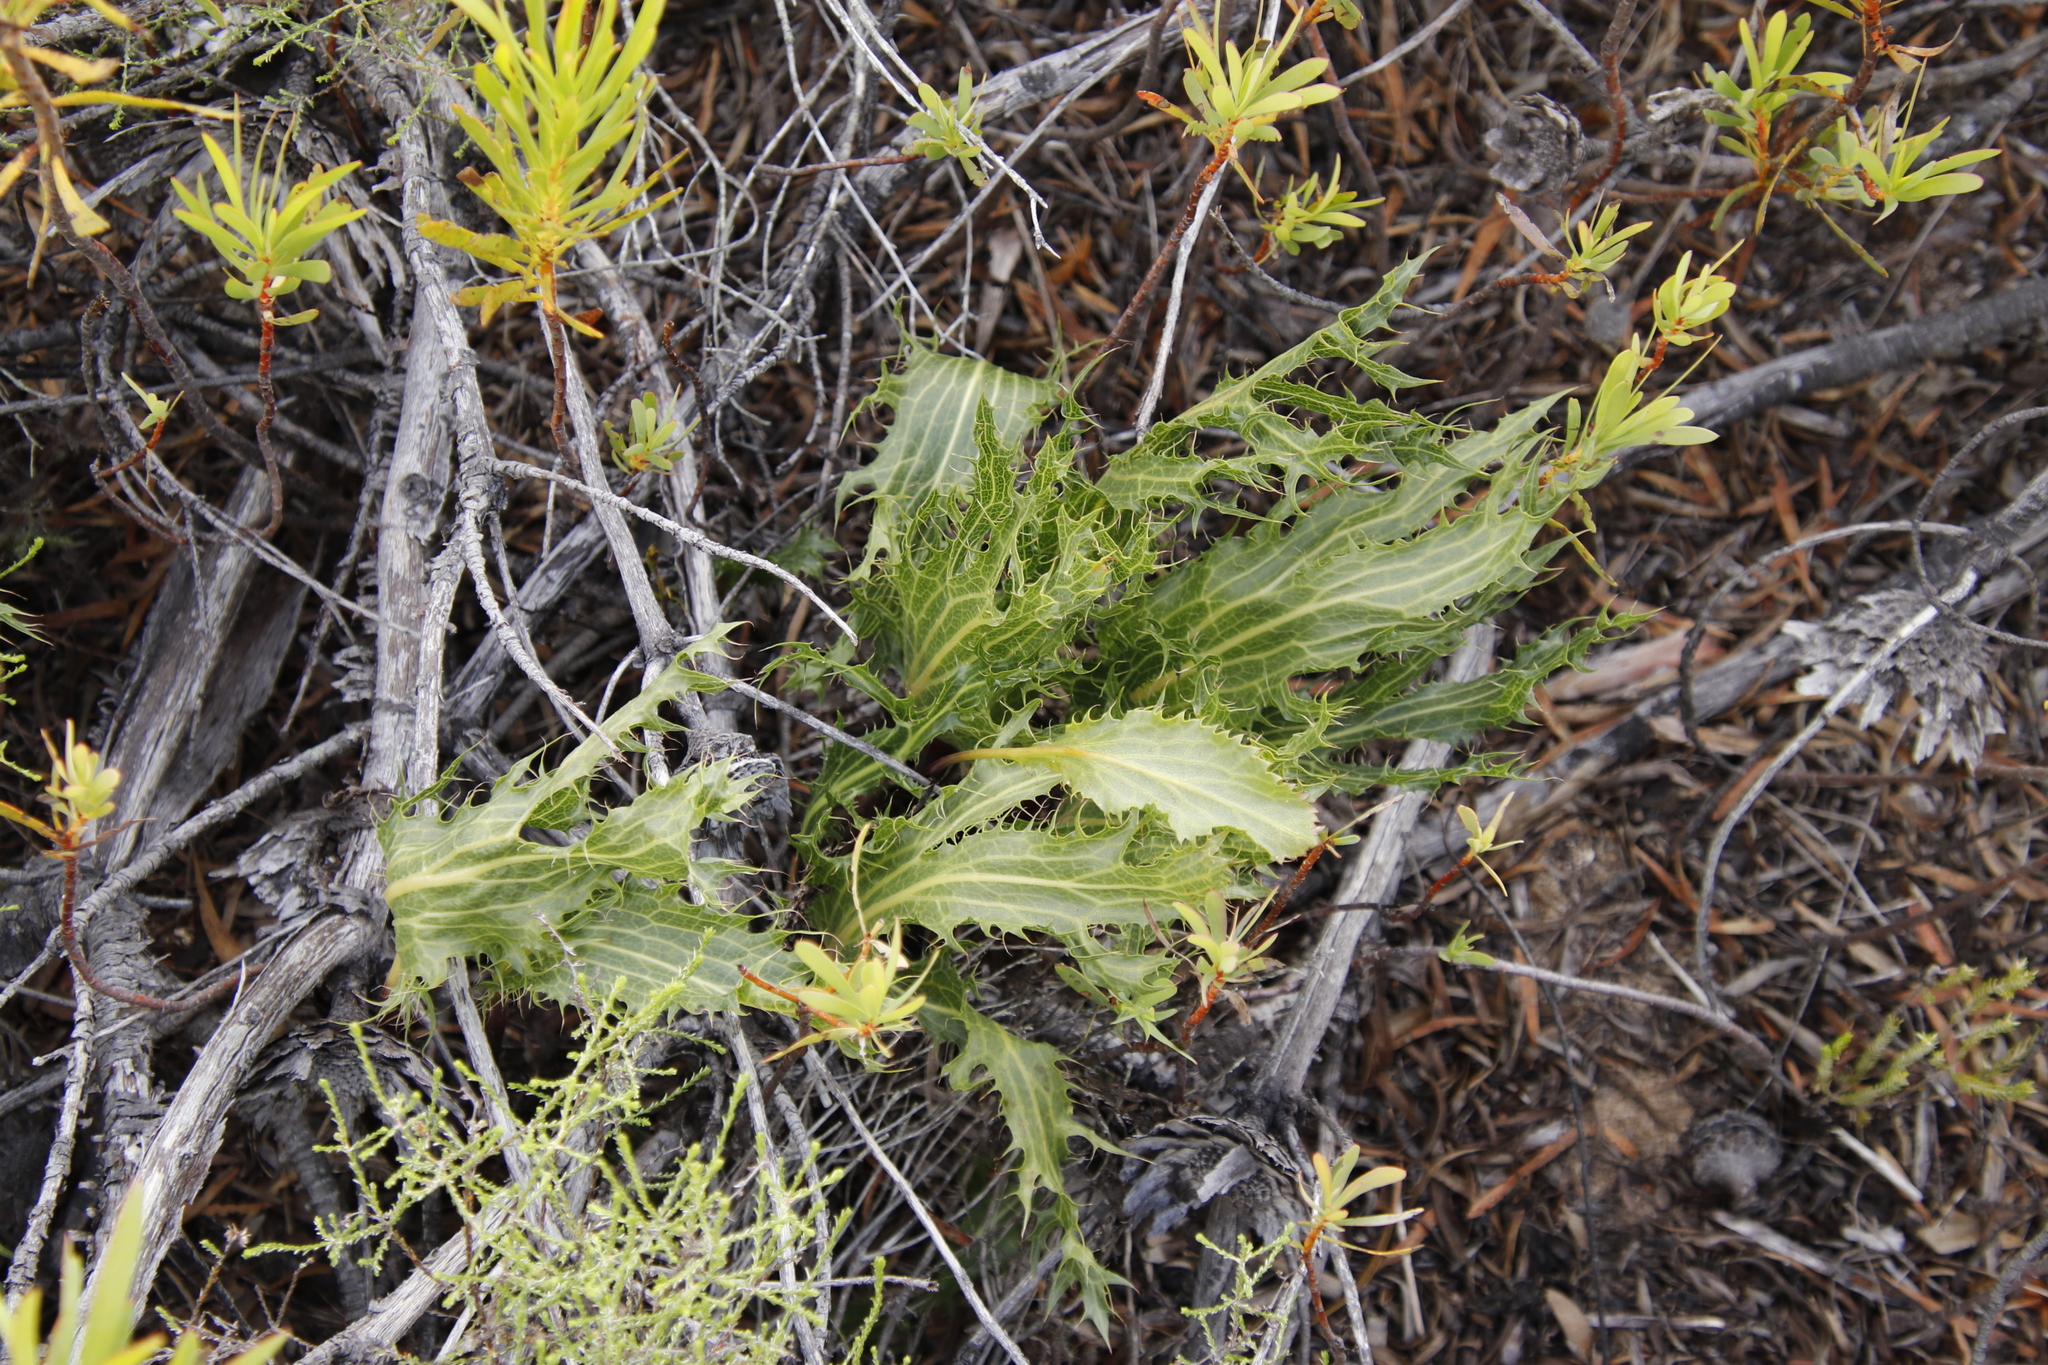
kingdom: Plantae
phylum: Tracheophyta
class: Magnoliopsida
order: Apiales
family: Apiaceae
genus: Lichtensteinia
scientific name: Lichtensteinia lacera
